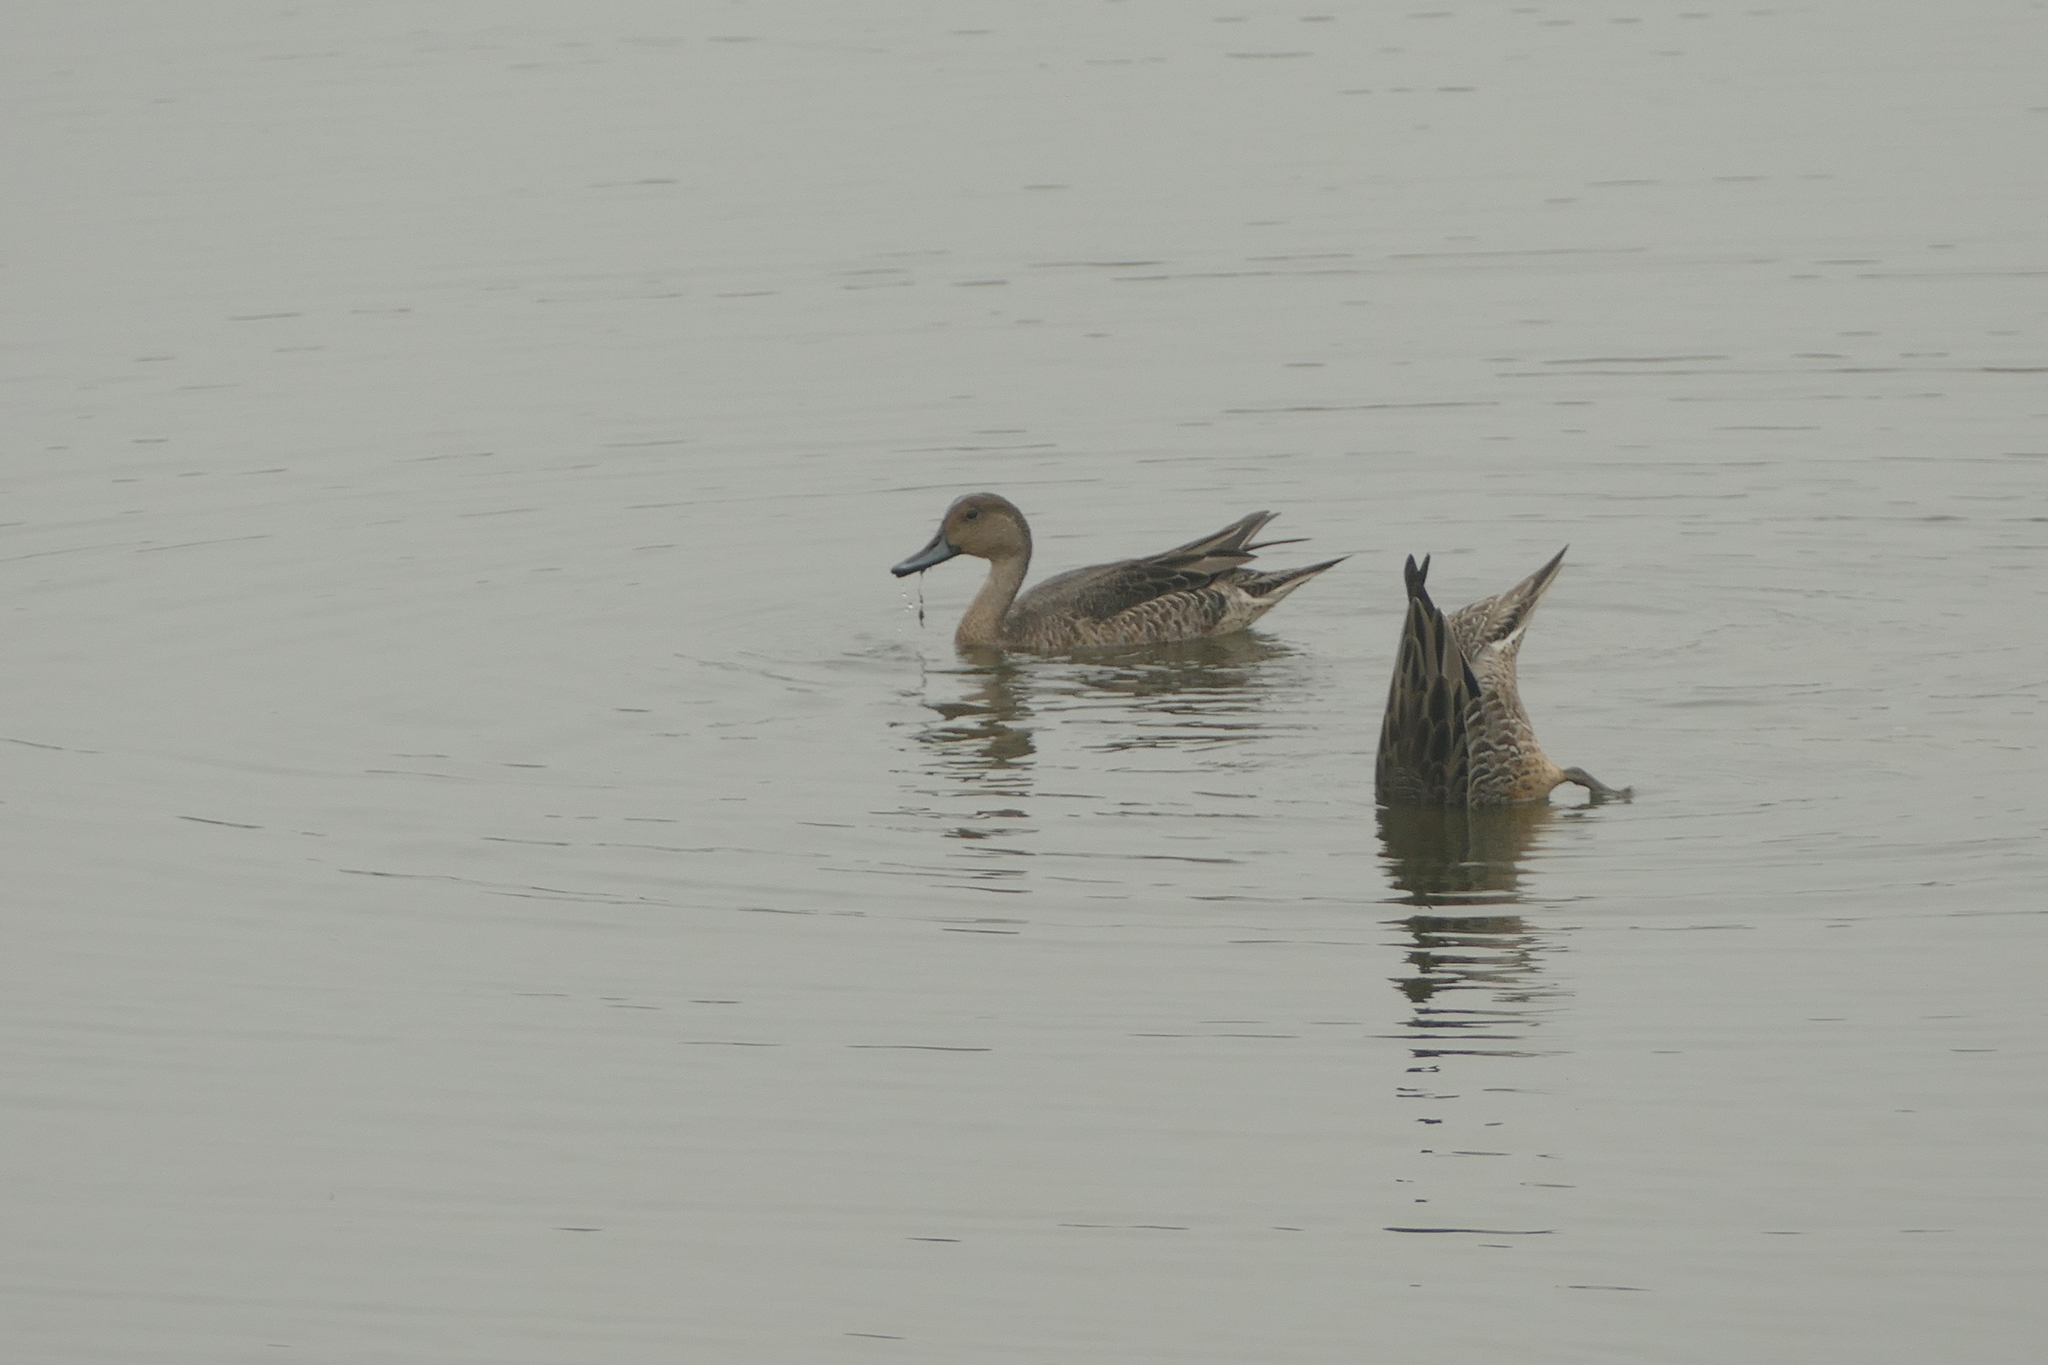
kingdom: Animalia
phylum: Chordata
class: Aves
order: Anseriformes
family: Anatidae
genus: Anas
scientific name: Anas acuta
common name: Northern pintail
